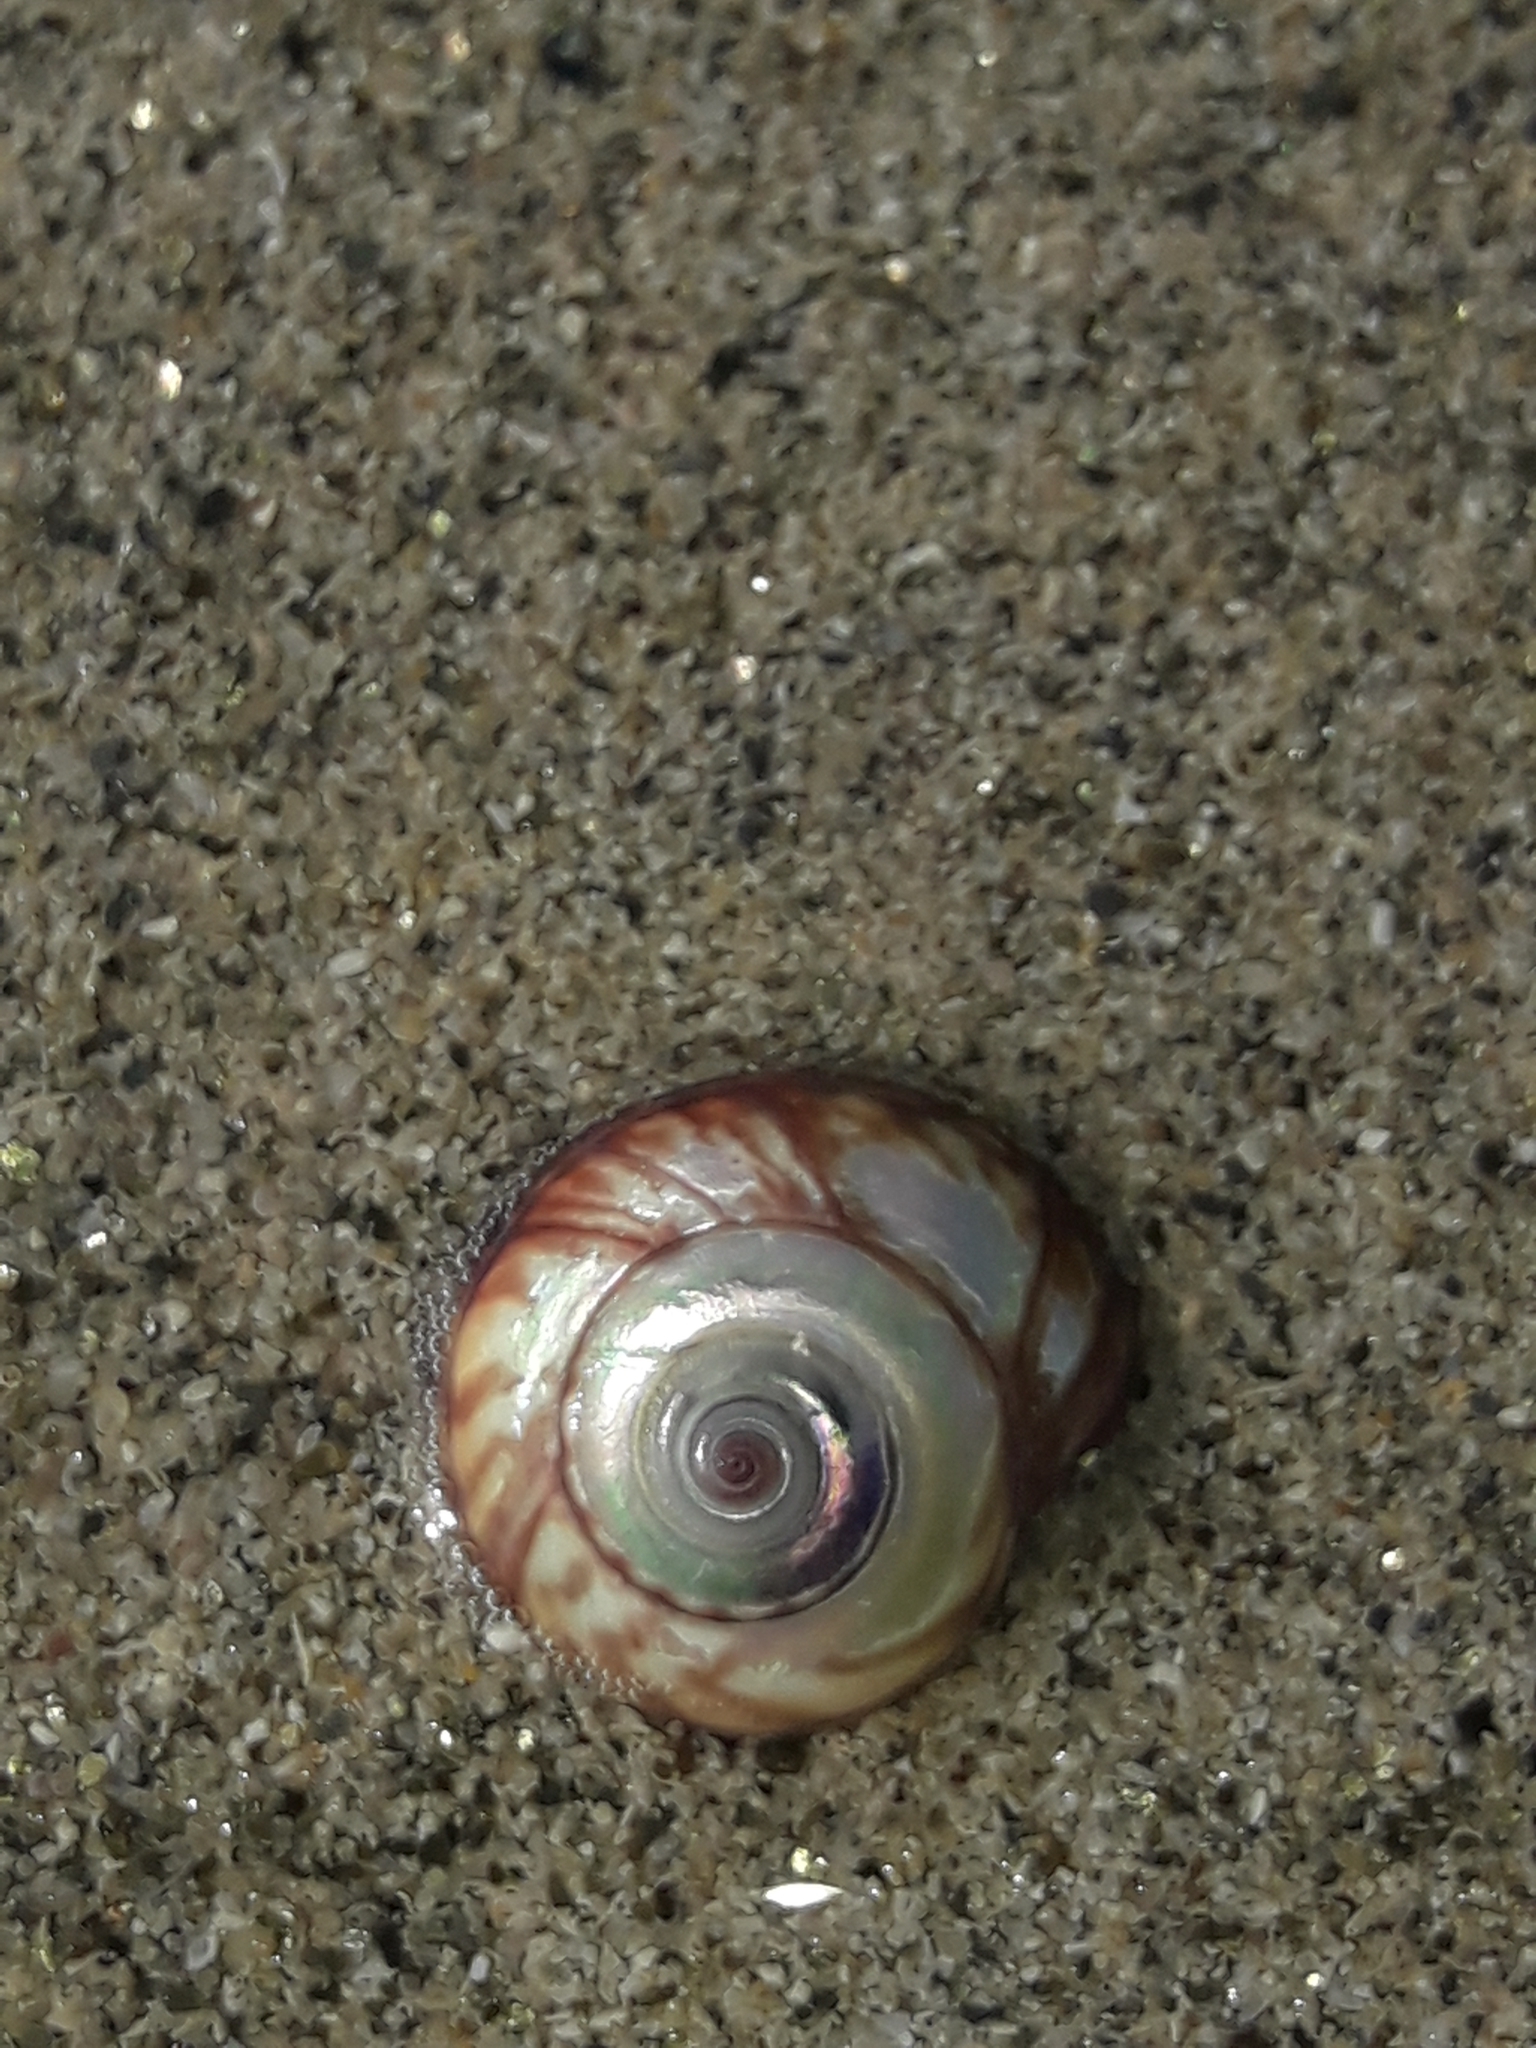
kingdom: Animalia
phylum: Mollusca
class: Gastropoda
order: Trochida
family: Trochidae
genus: Zethalia
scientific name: Zethalia zelandica
